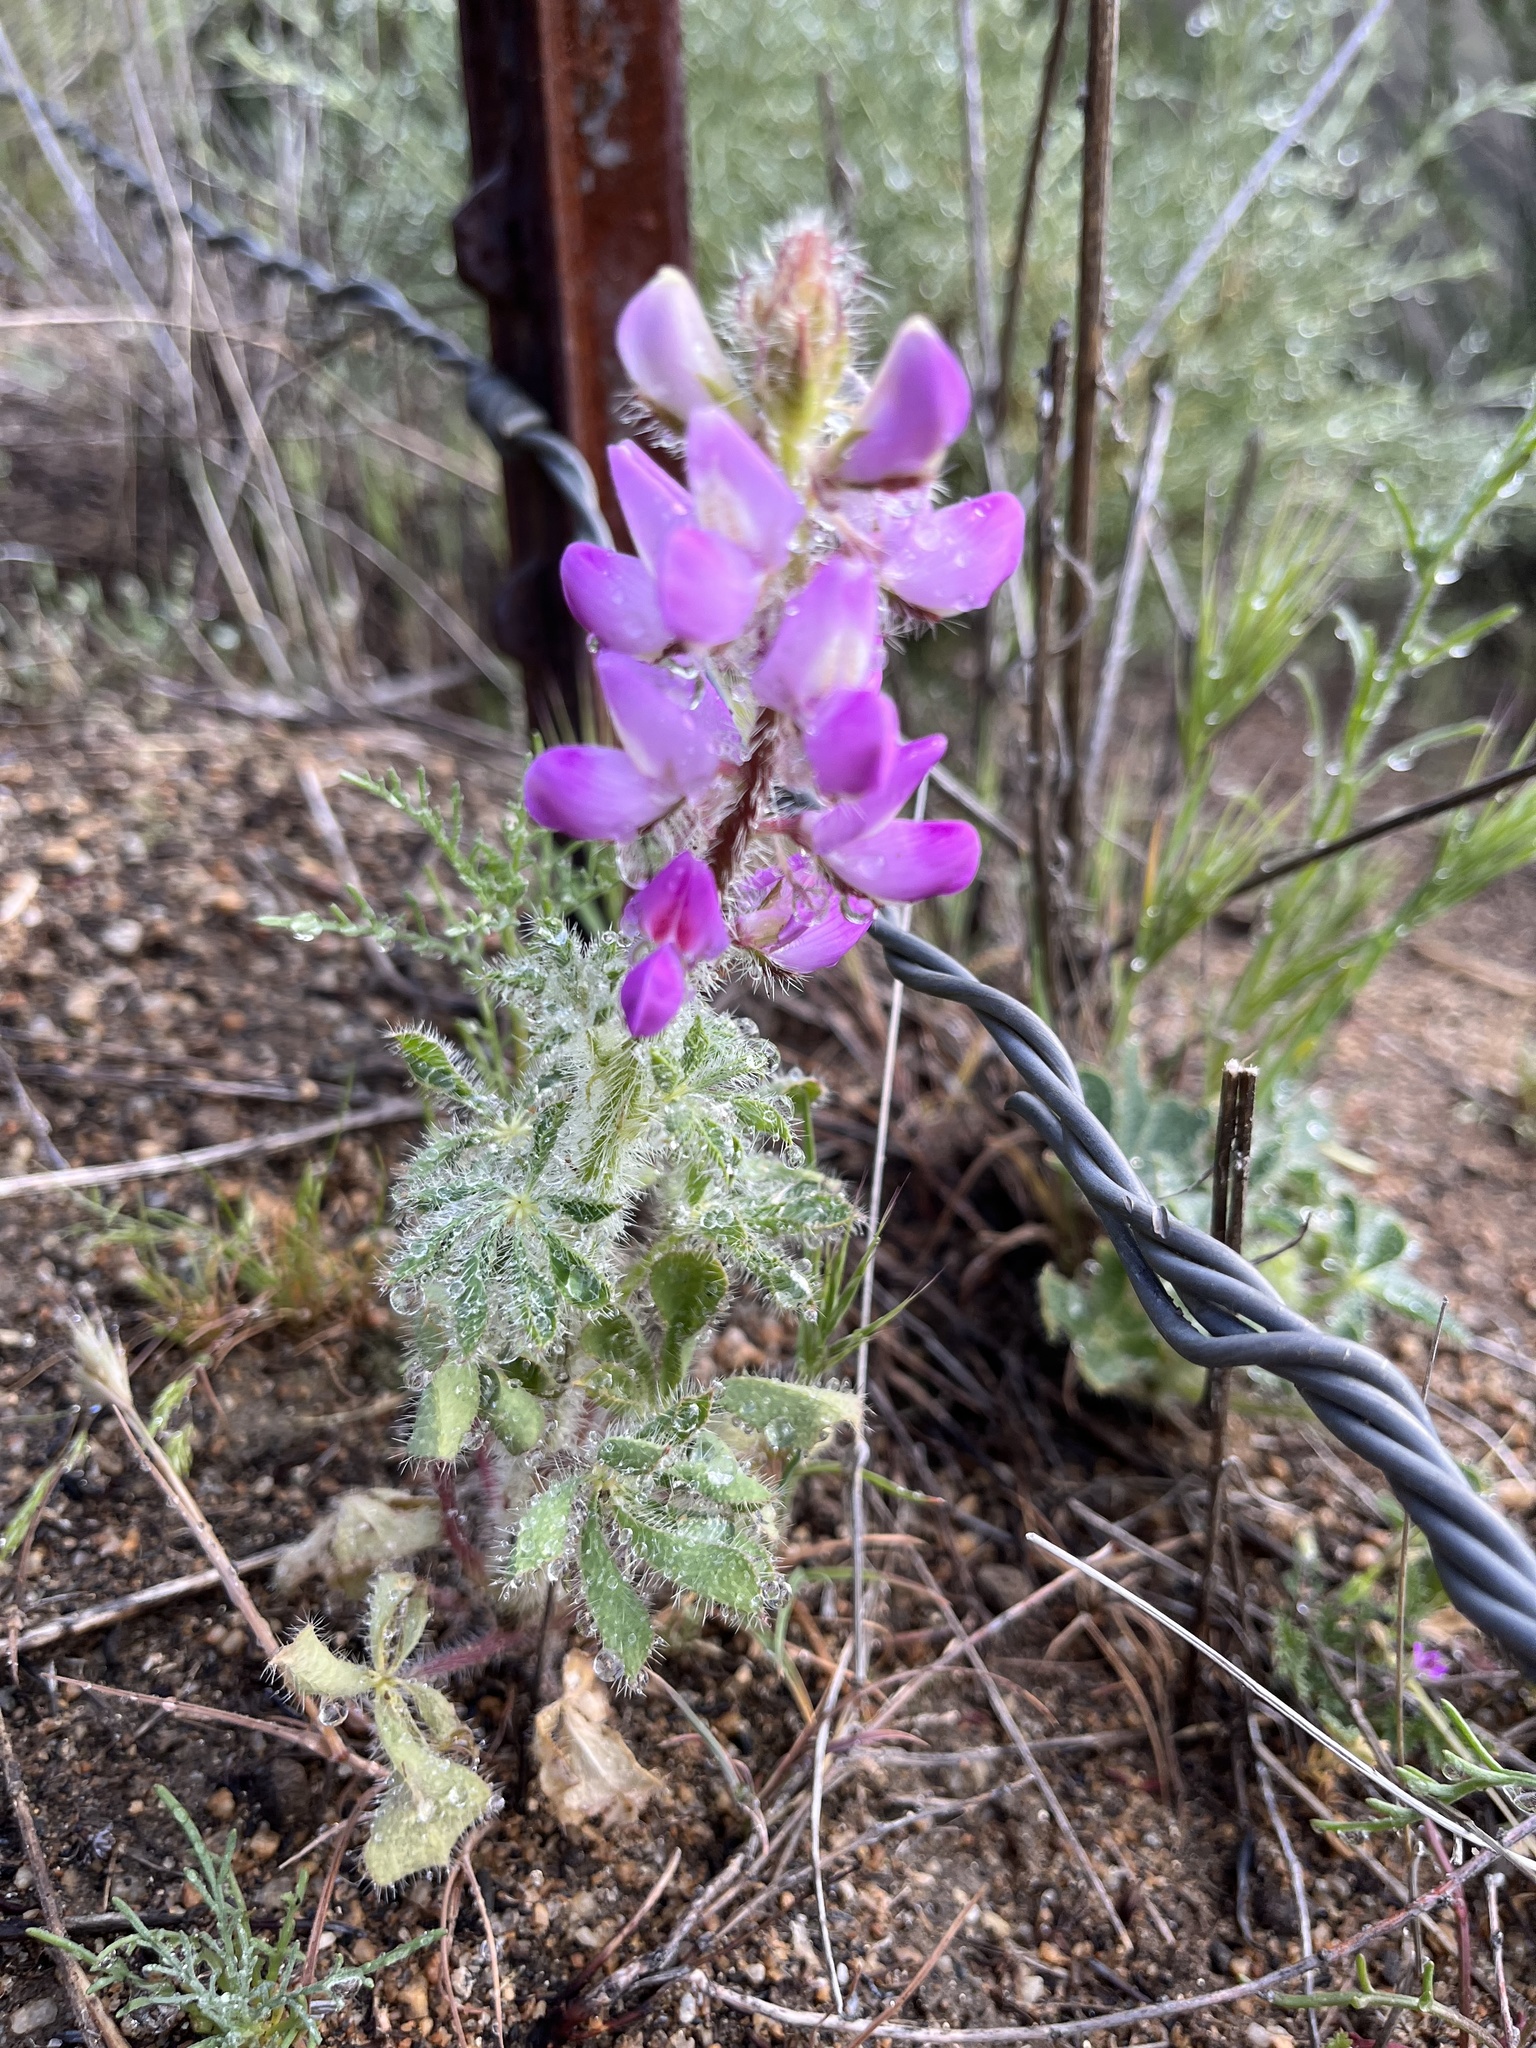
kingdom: Plantae
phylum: Tracheophyta
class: Magnoliopsida
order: Fabales
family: Fabaceae
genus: Lupinus
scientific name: Lupinus hirsutissimus
